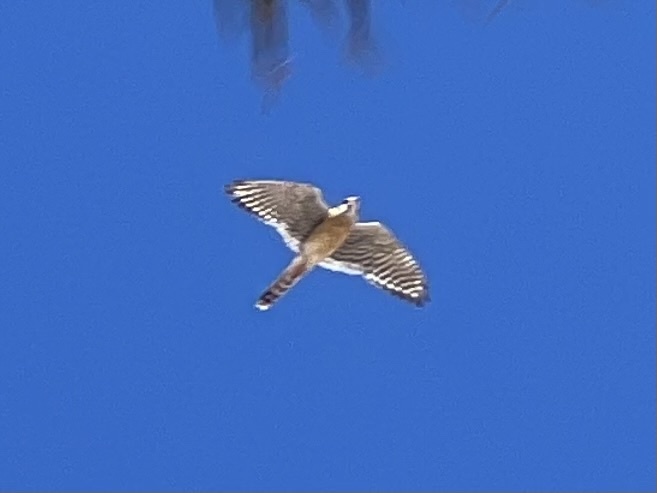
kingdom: Animalia
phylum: Chordata
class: Aves
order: Falconiformes
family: Falconidae
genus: Falco
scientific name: Falco sparverius
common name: American kestrel
